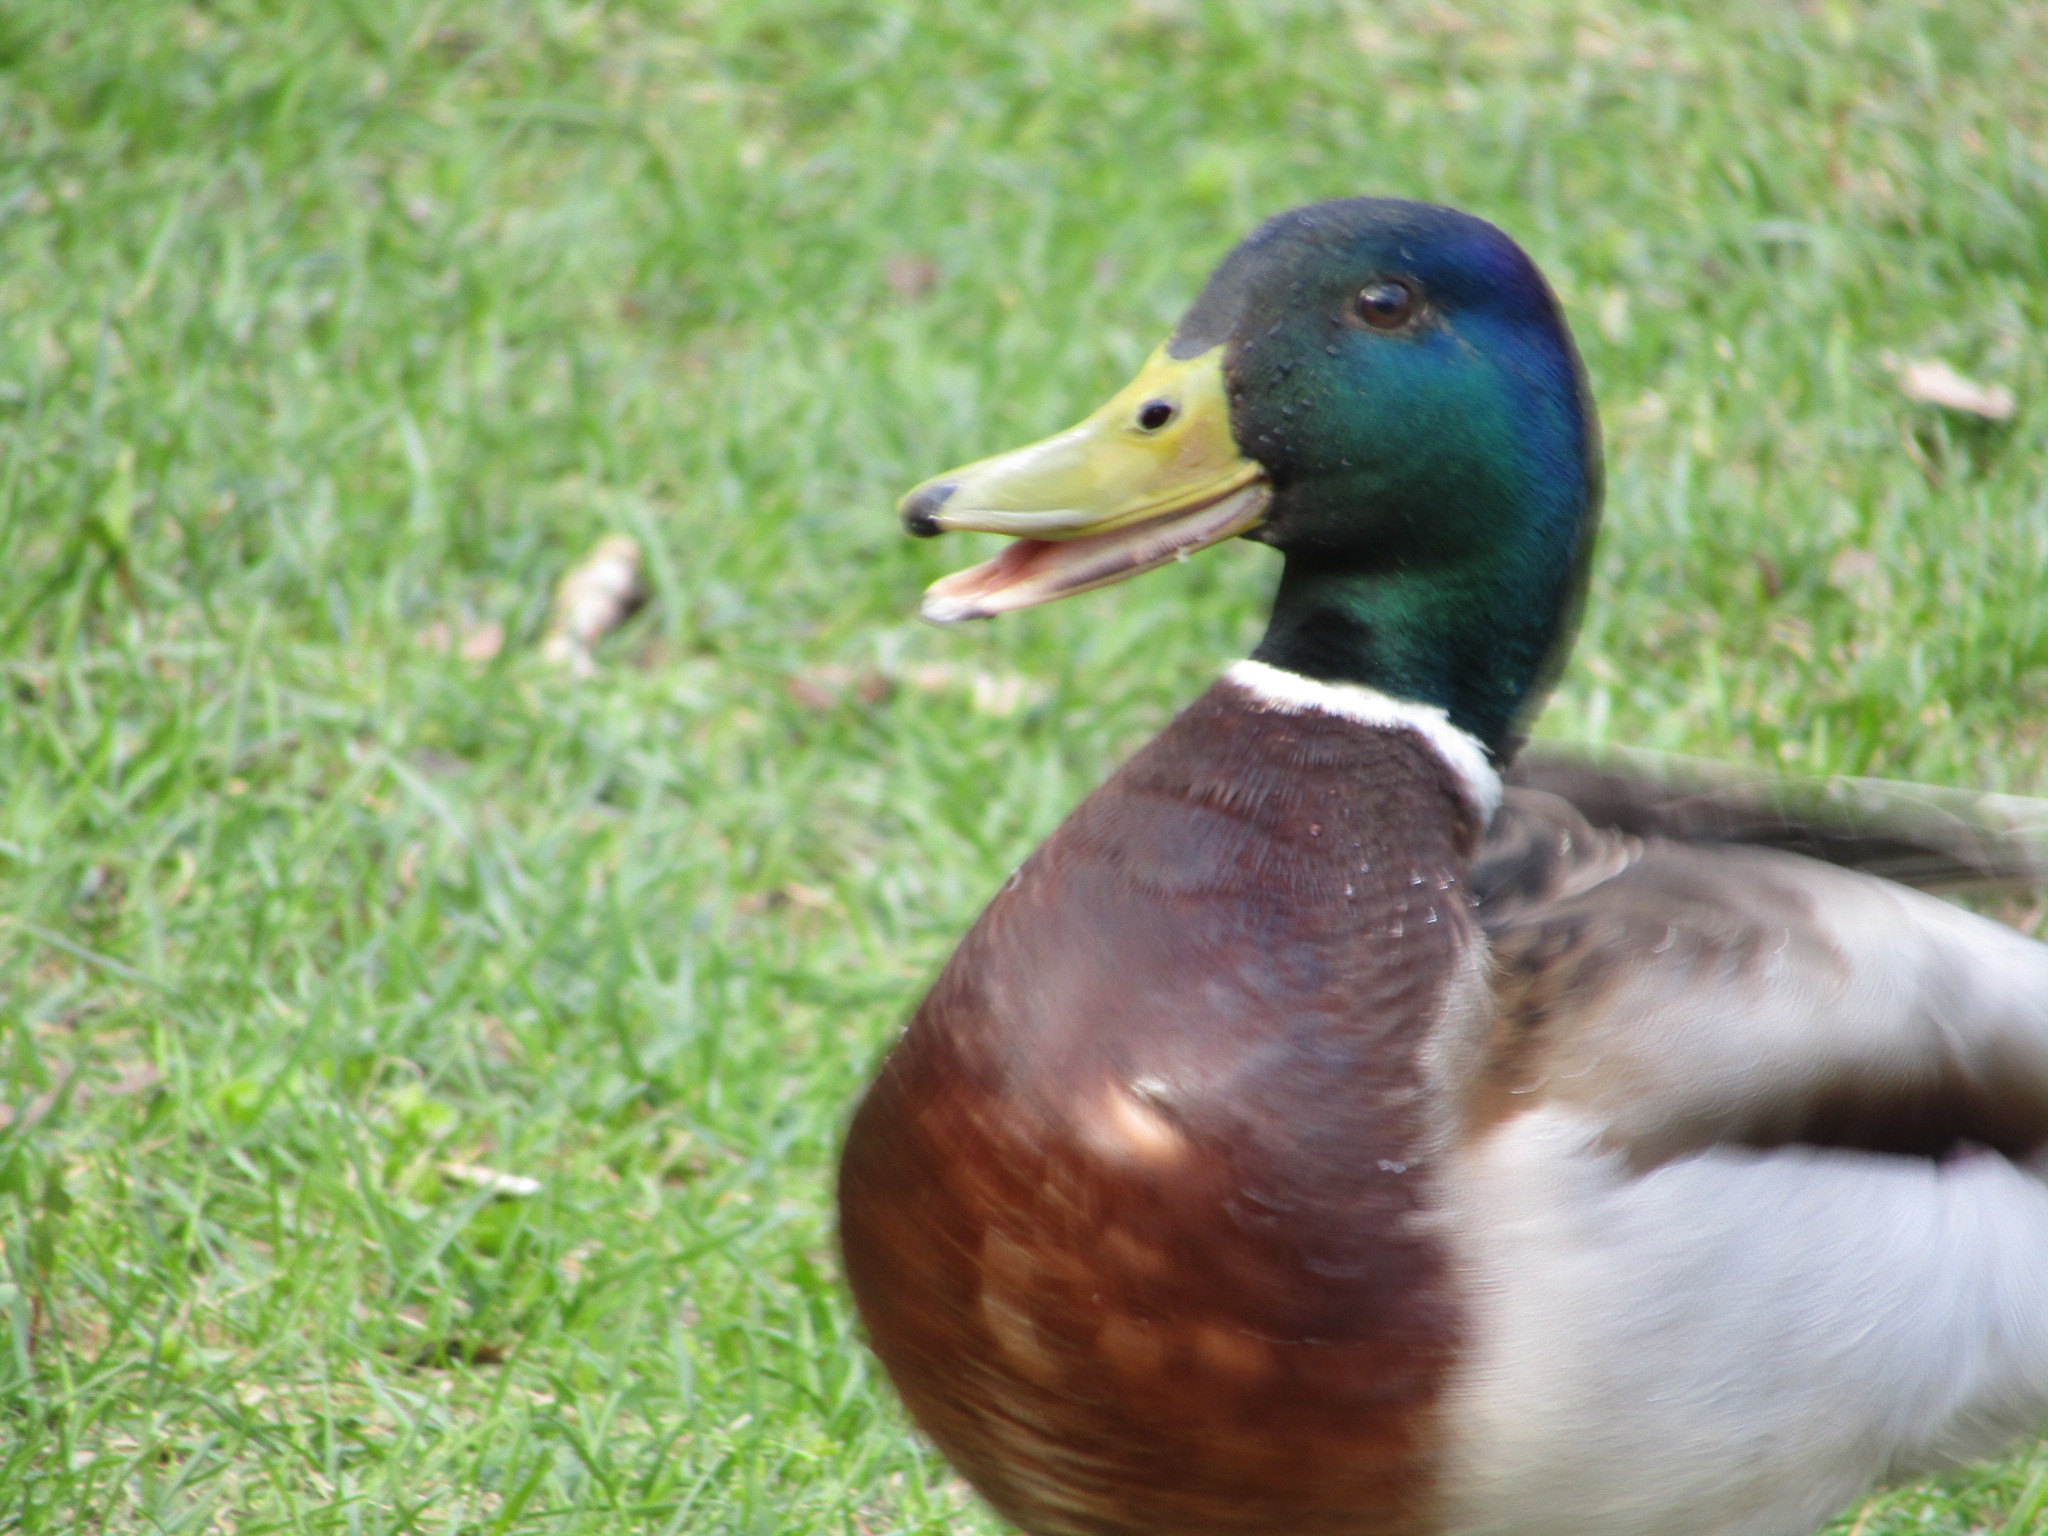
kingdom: Animalia
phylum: Chordata
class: Aves
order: Anseriformes
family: Anatidae
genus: Anas
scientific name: Anas platyrhynchos
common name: Mallard
